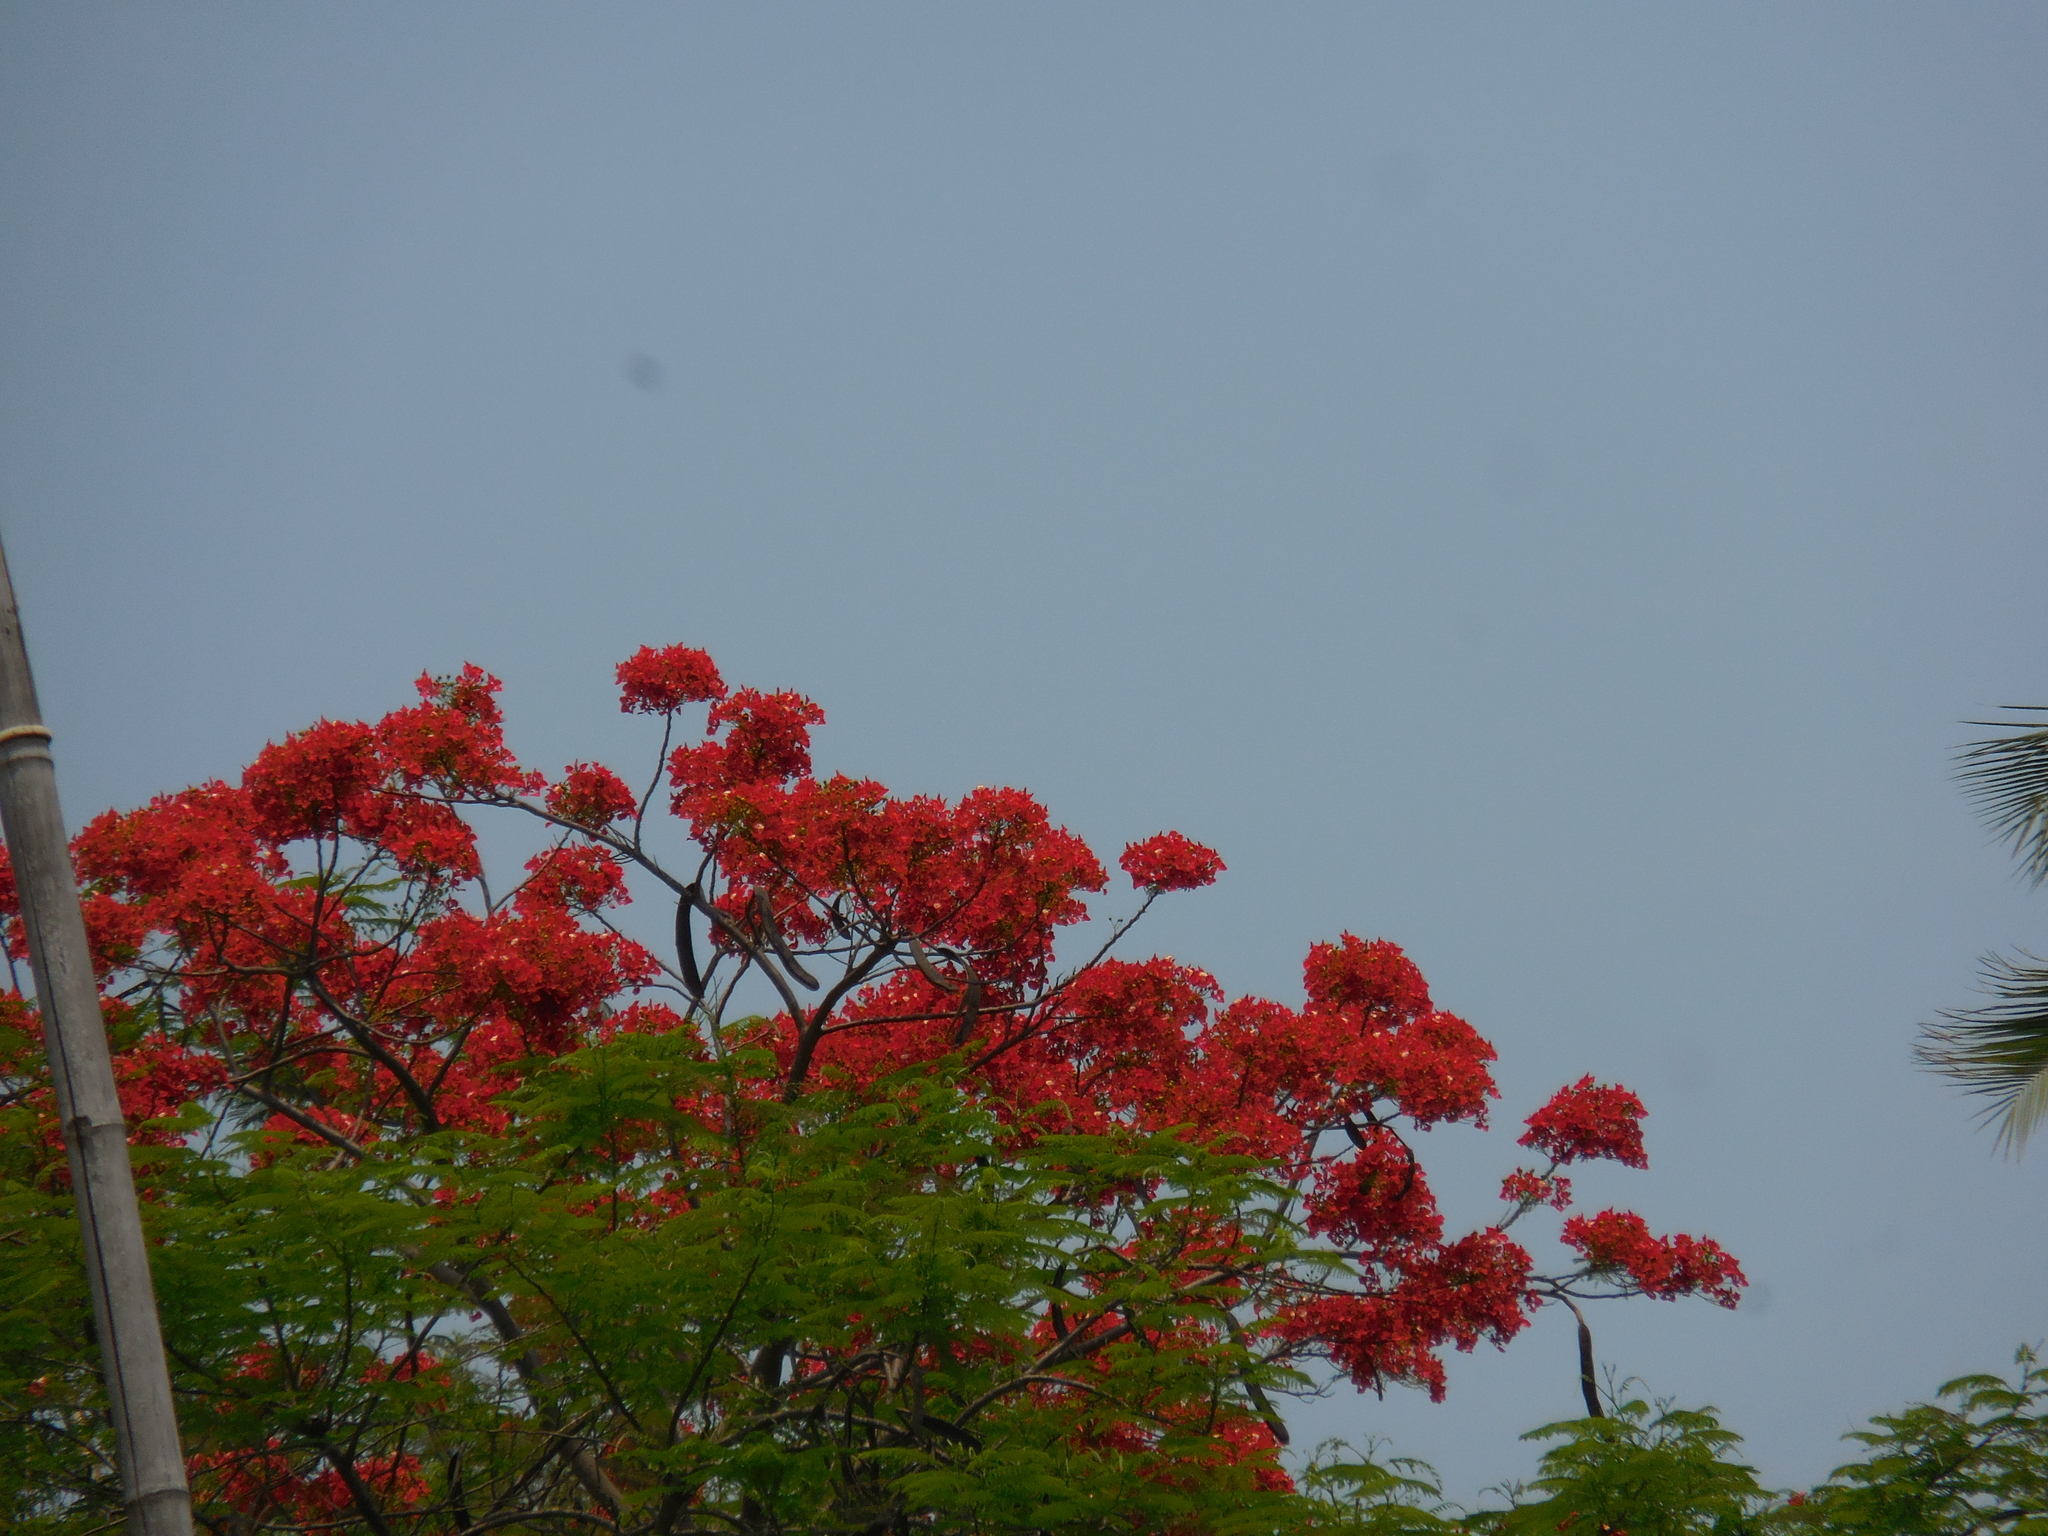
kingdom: Plantae
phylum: Tracheophyta
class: Magnoliopsida
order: Fabales
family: Fabaceae
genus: Delonix
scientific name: Delonix regia
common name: Royal poinciana
